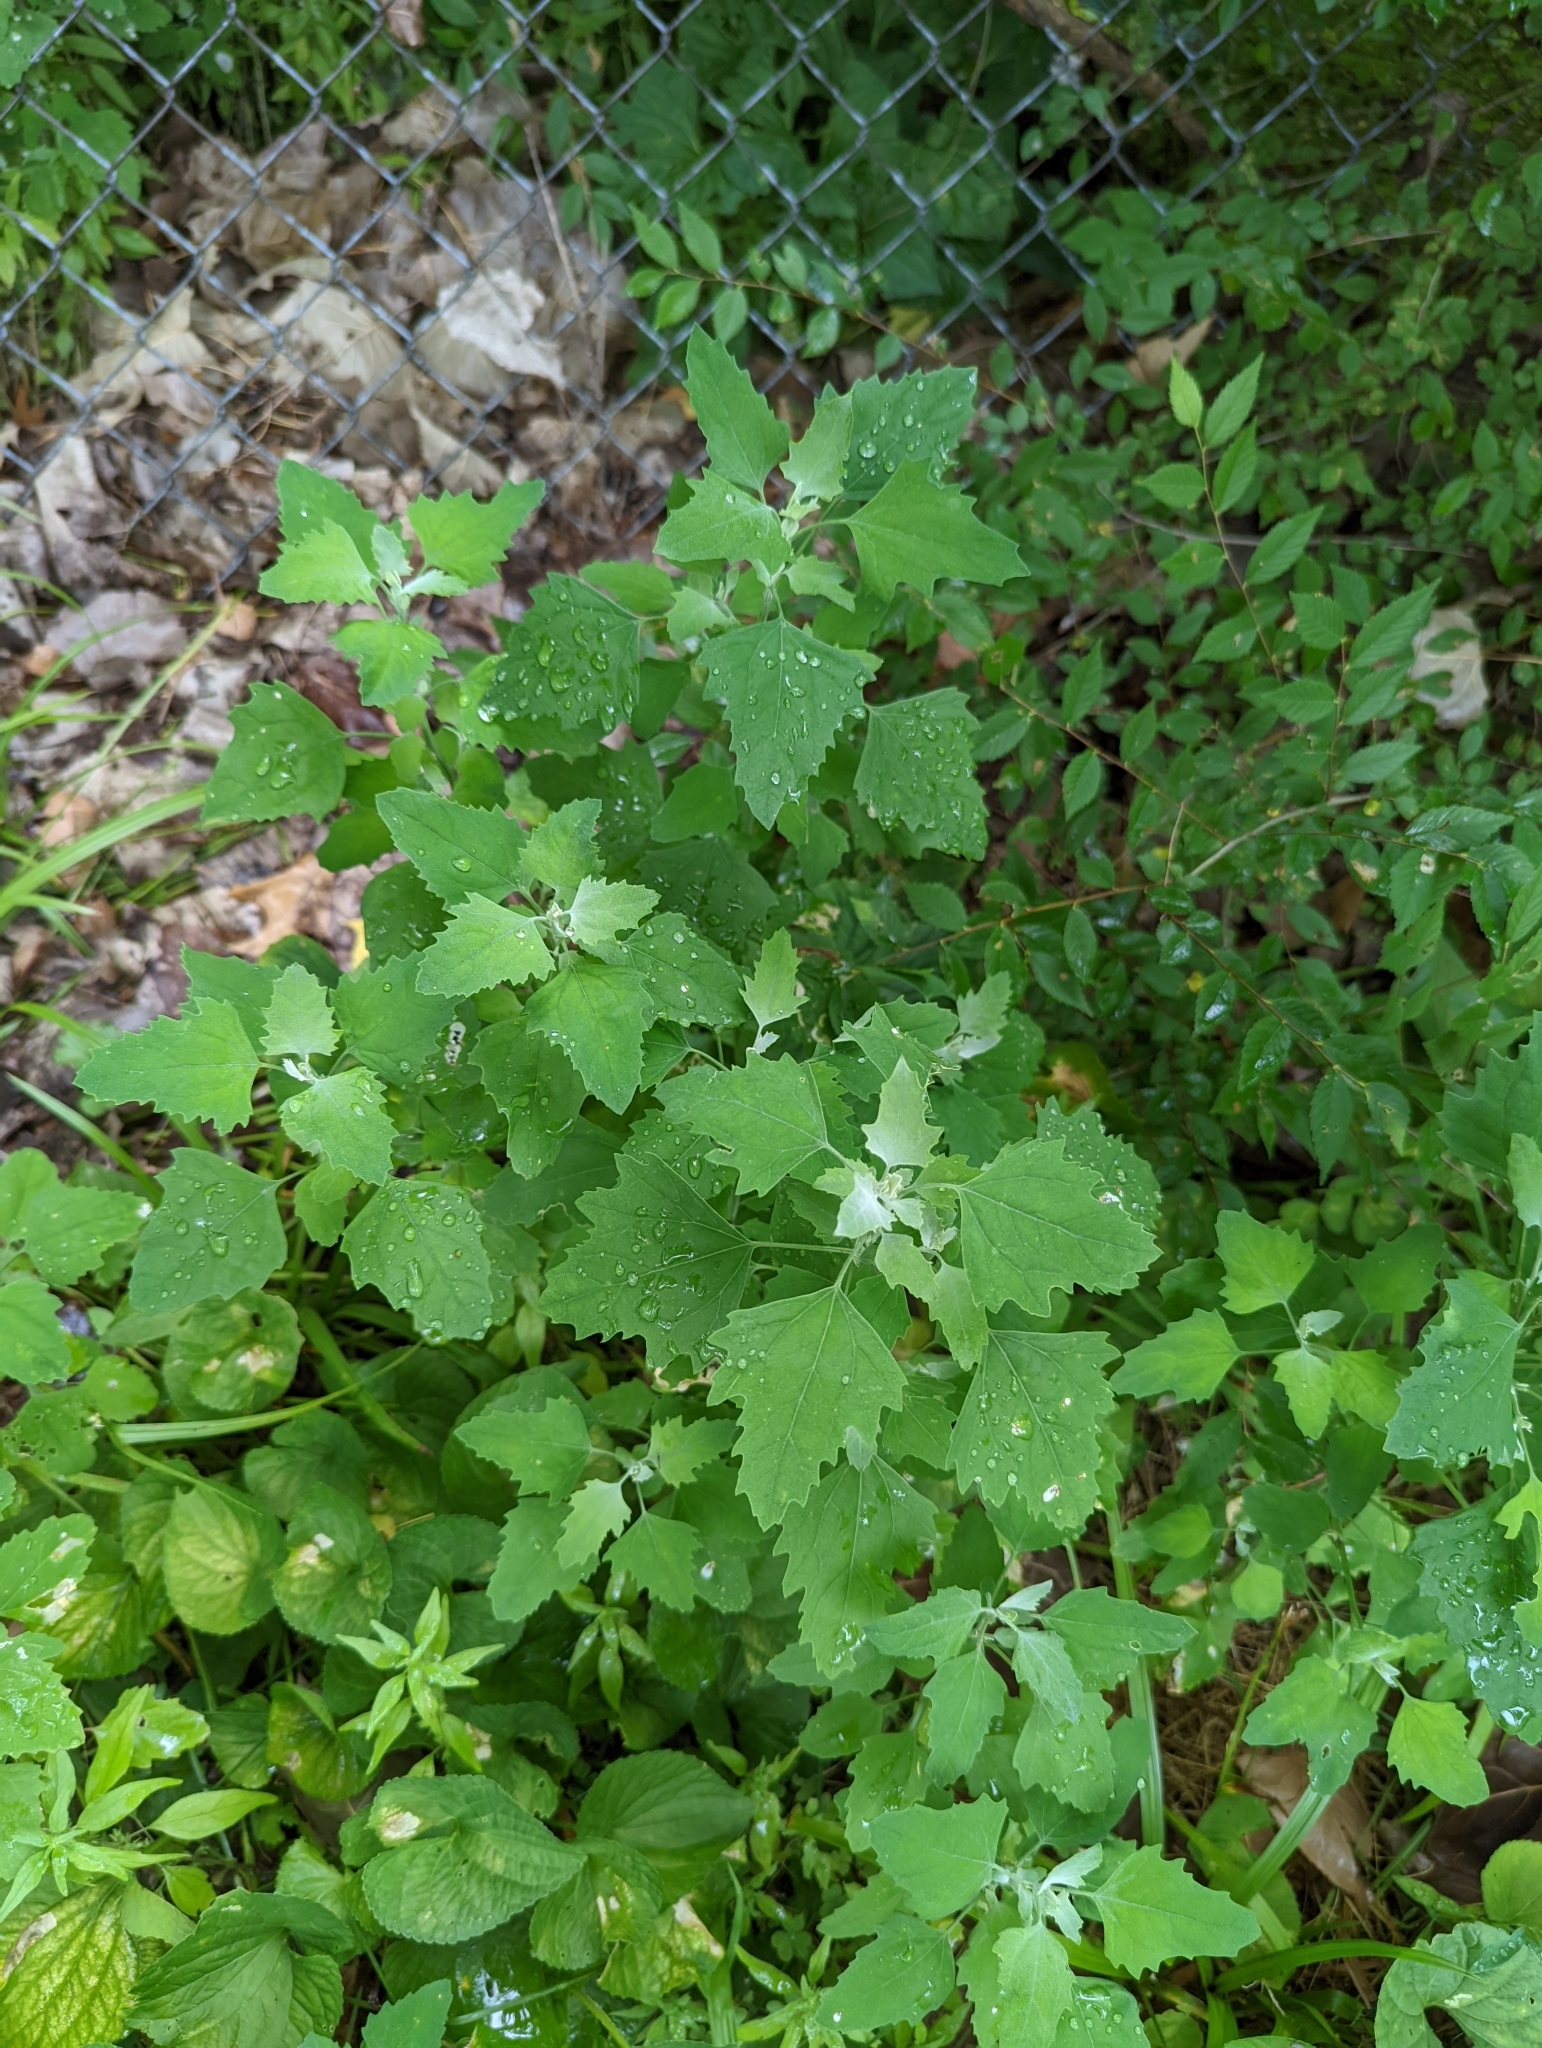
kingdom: Plantae
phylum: Tracheophyta
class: Magnoliopsida
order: Caryophyllales
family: Amaranthaceae
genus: Chenopodium
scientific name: Chenopodium album
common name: Fat-hen
